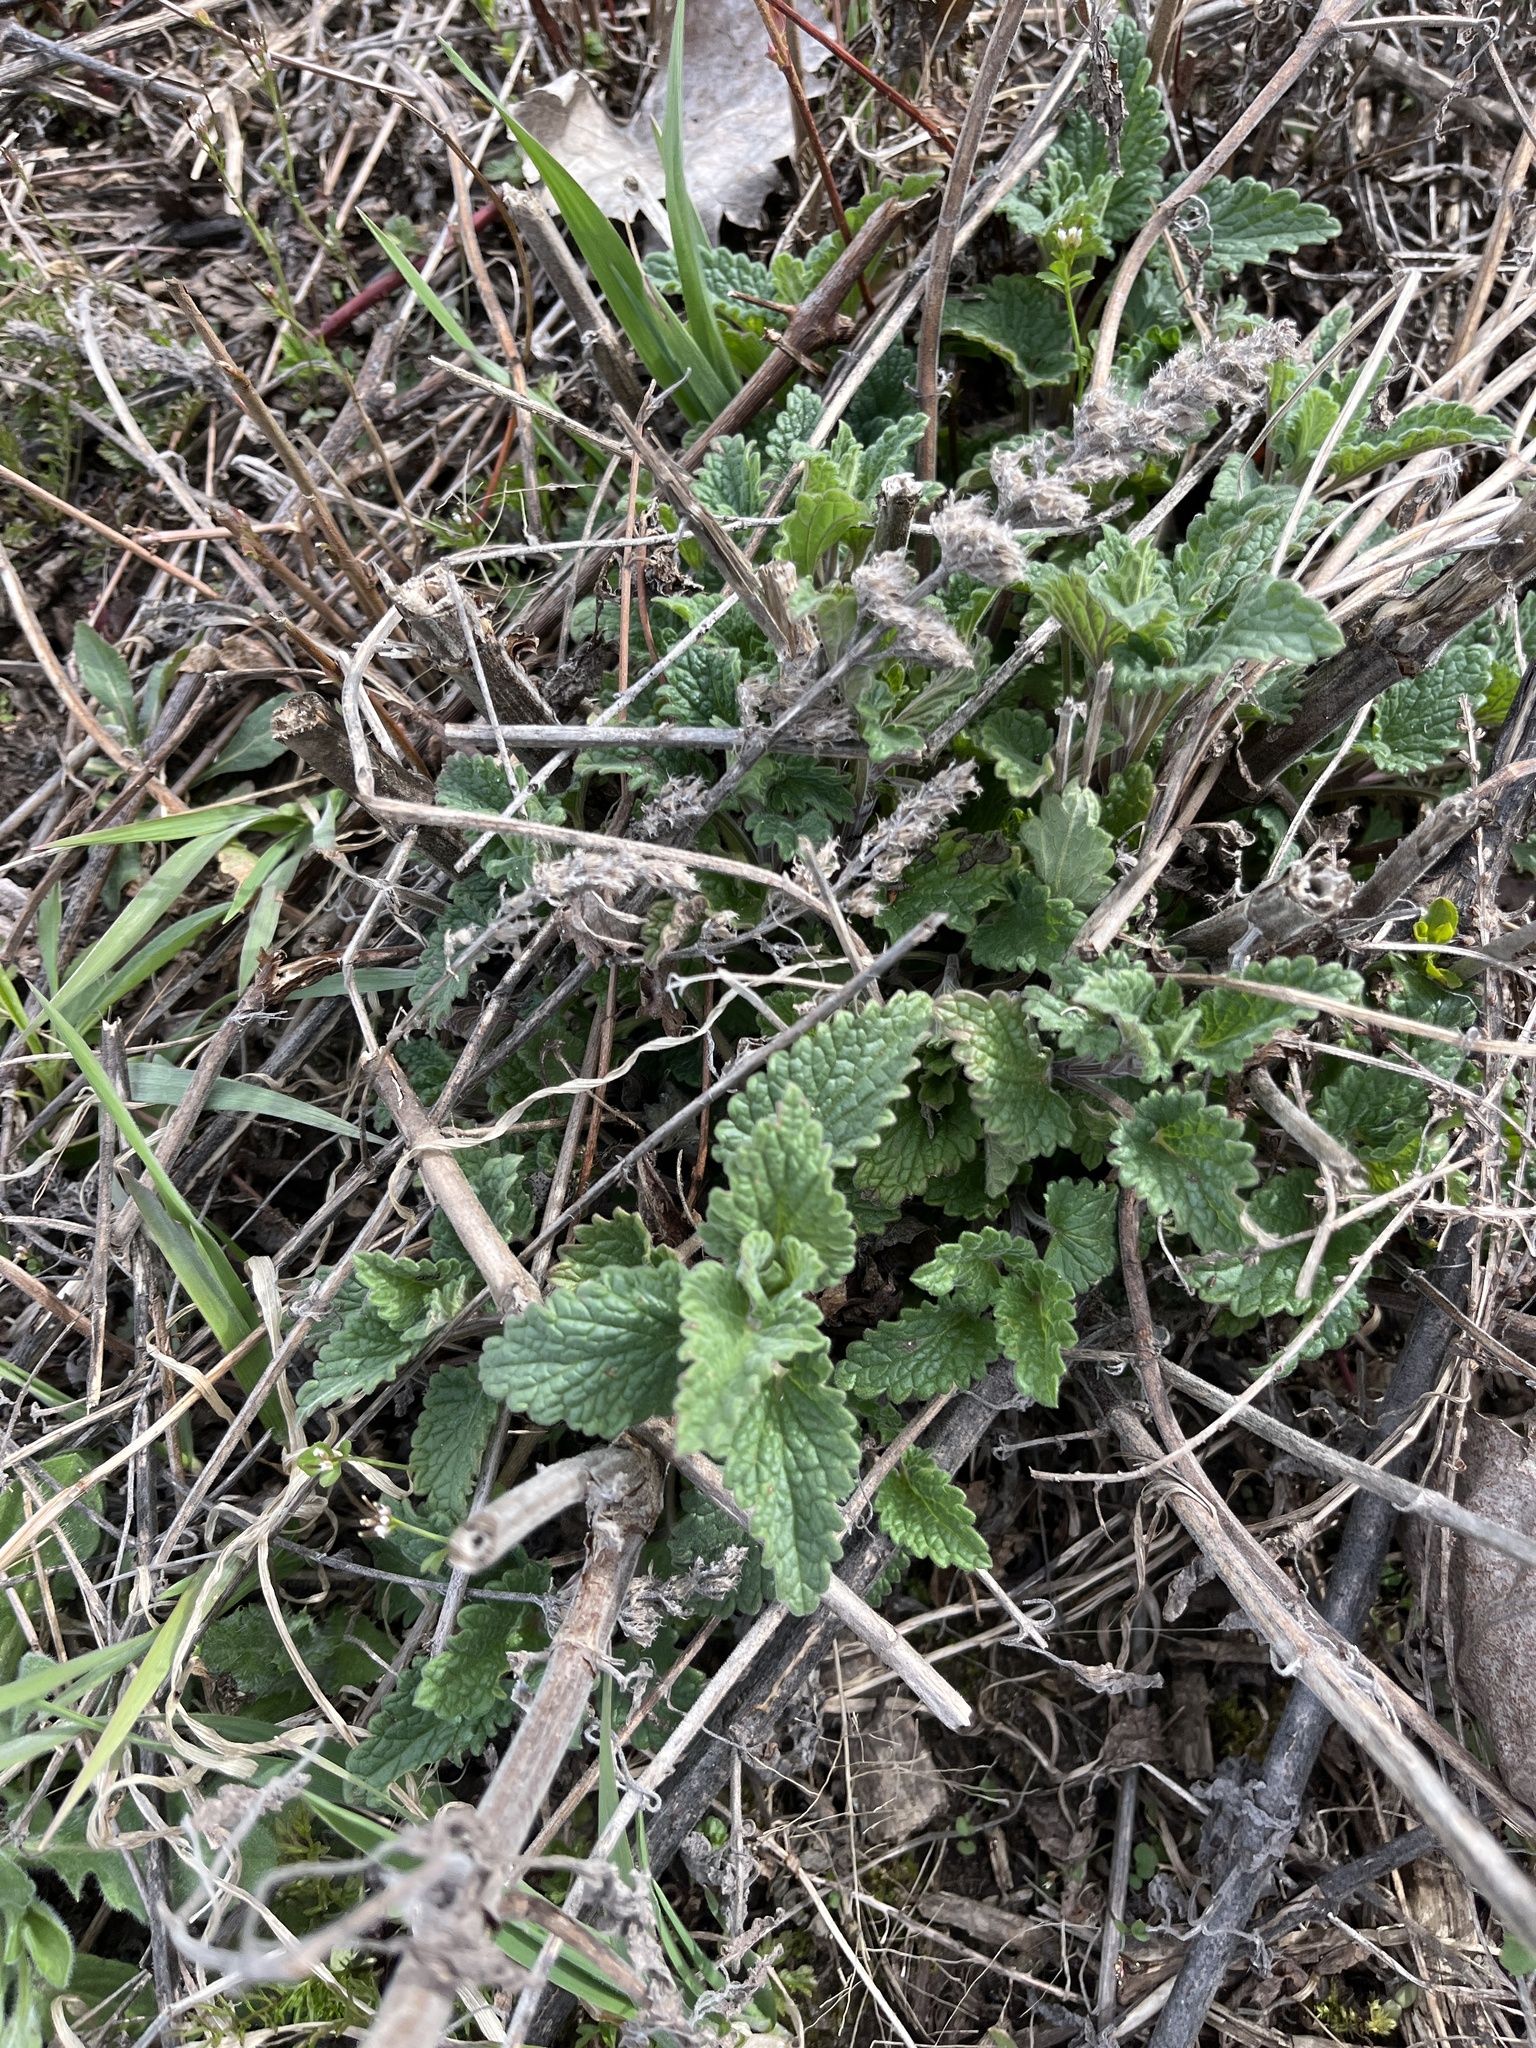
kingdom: Plantae
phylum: Tracheophyta
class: Magnoliopsida
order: Lamiales
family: Lamiaceae
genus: Nepeta
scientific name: Nepeta cataria
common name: Catnip
